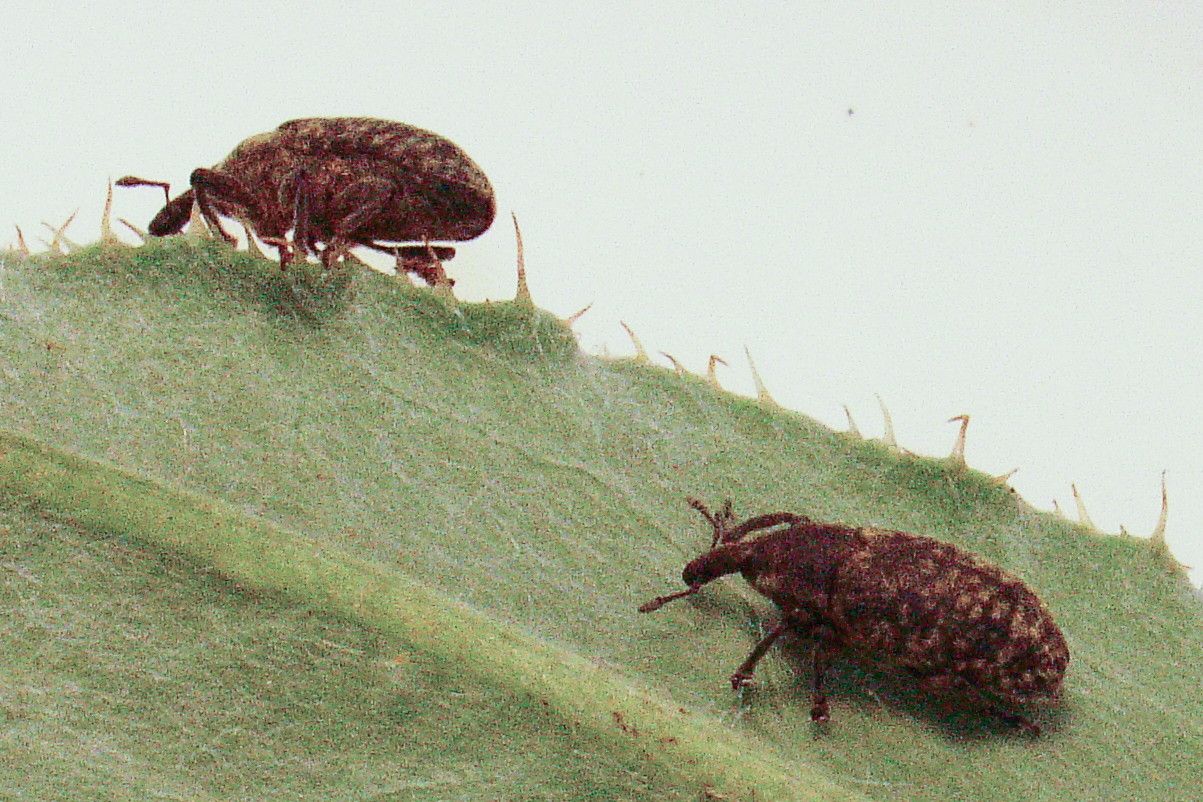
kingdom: Animalia
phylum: Arthropoda
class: Insecta
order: Coleoptera
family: Curculionidae
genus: Larinus
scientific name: Larinus carlinae
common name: Weevil
